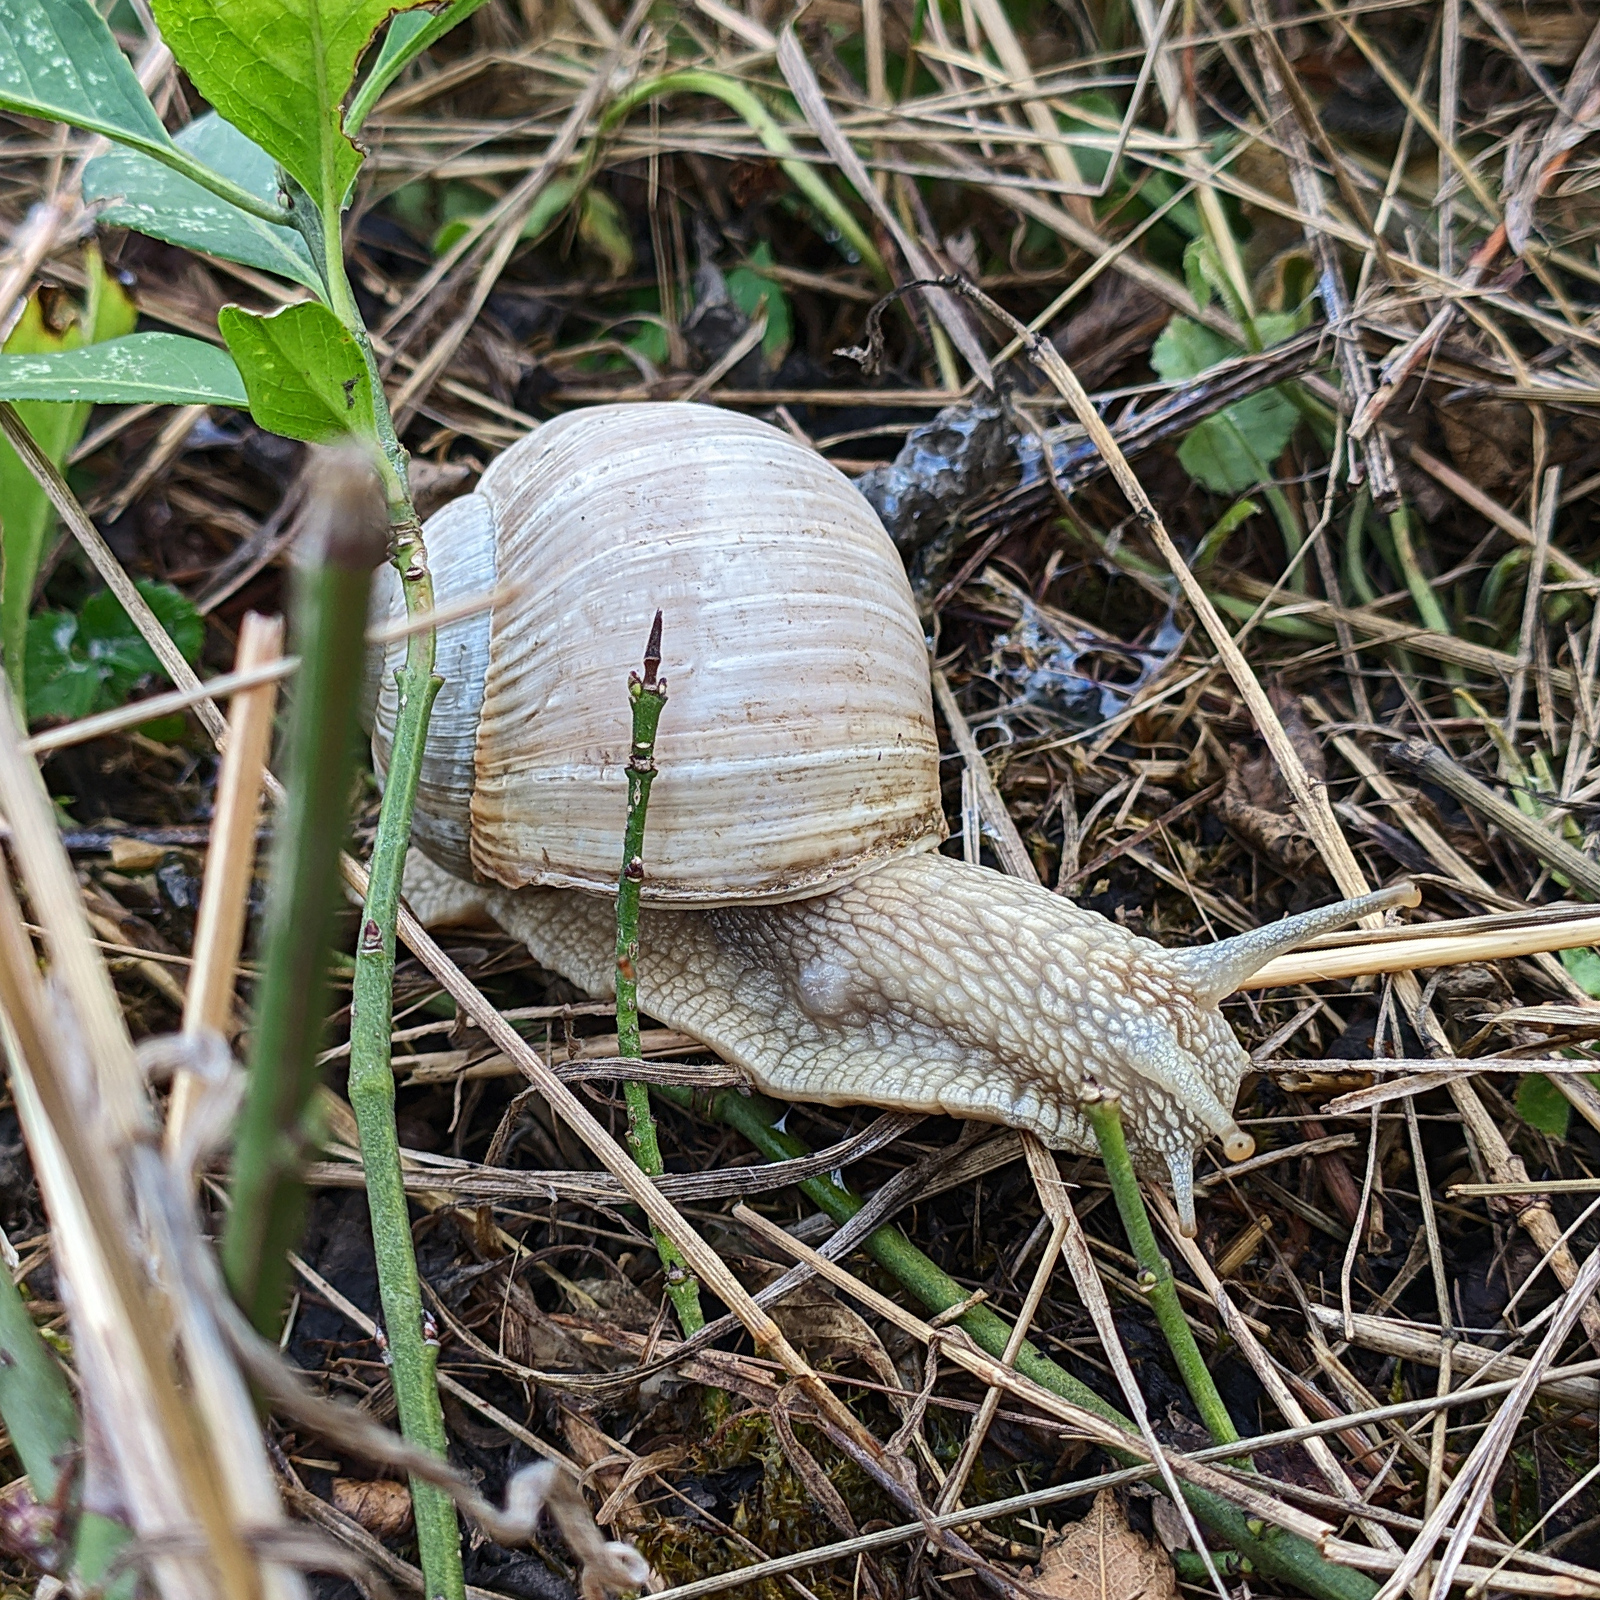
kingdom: Animalia
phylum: Mollusca
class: Gastropoda
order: Stylommatophora
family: Helicidae
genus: Helix
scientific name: Helix pomatia
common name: Roman snail
